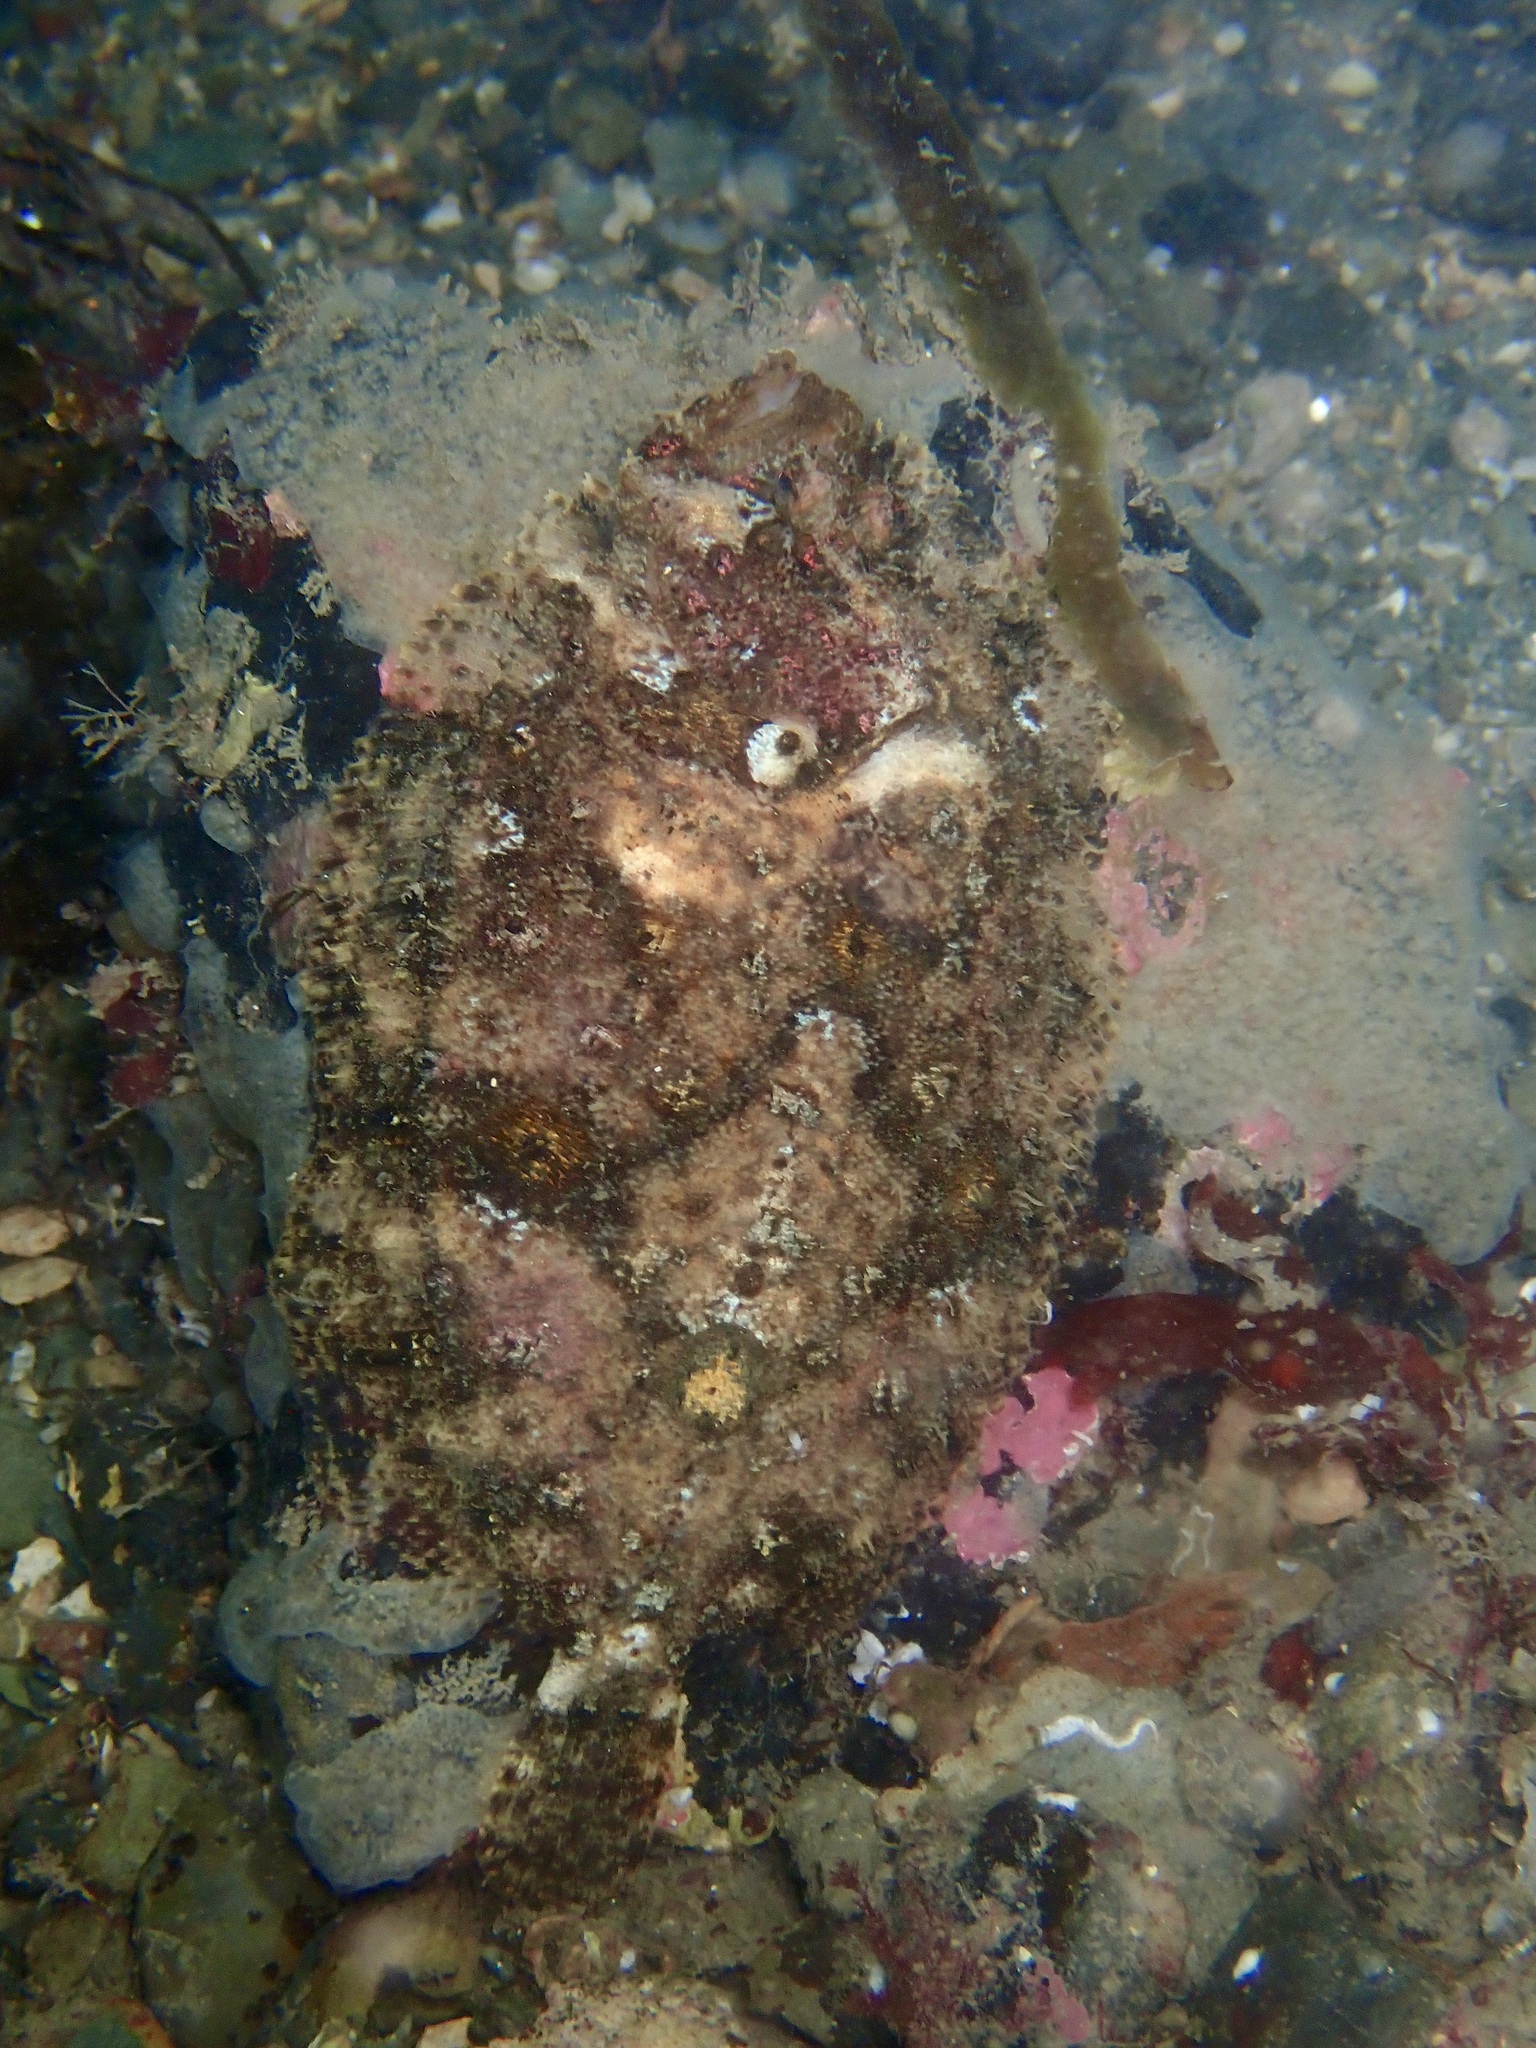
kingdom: Animalia
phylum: Chordata
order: Pleuronectiformes
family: Scophthalmidae
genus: Zeugopterus
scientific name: Zeugopterus regius
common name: Eckström's topknot
